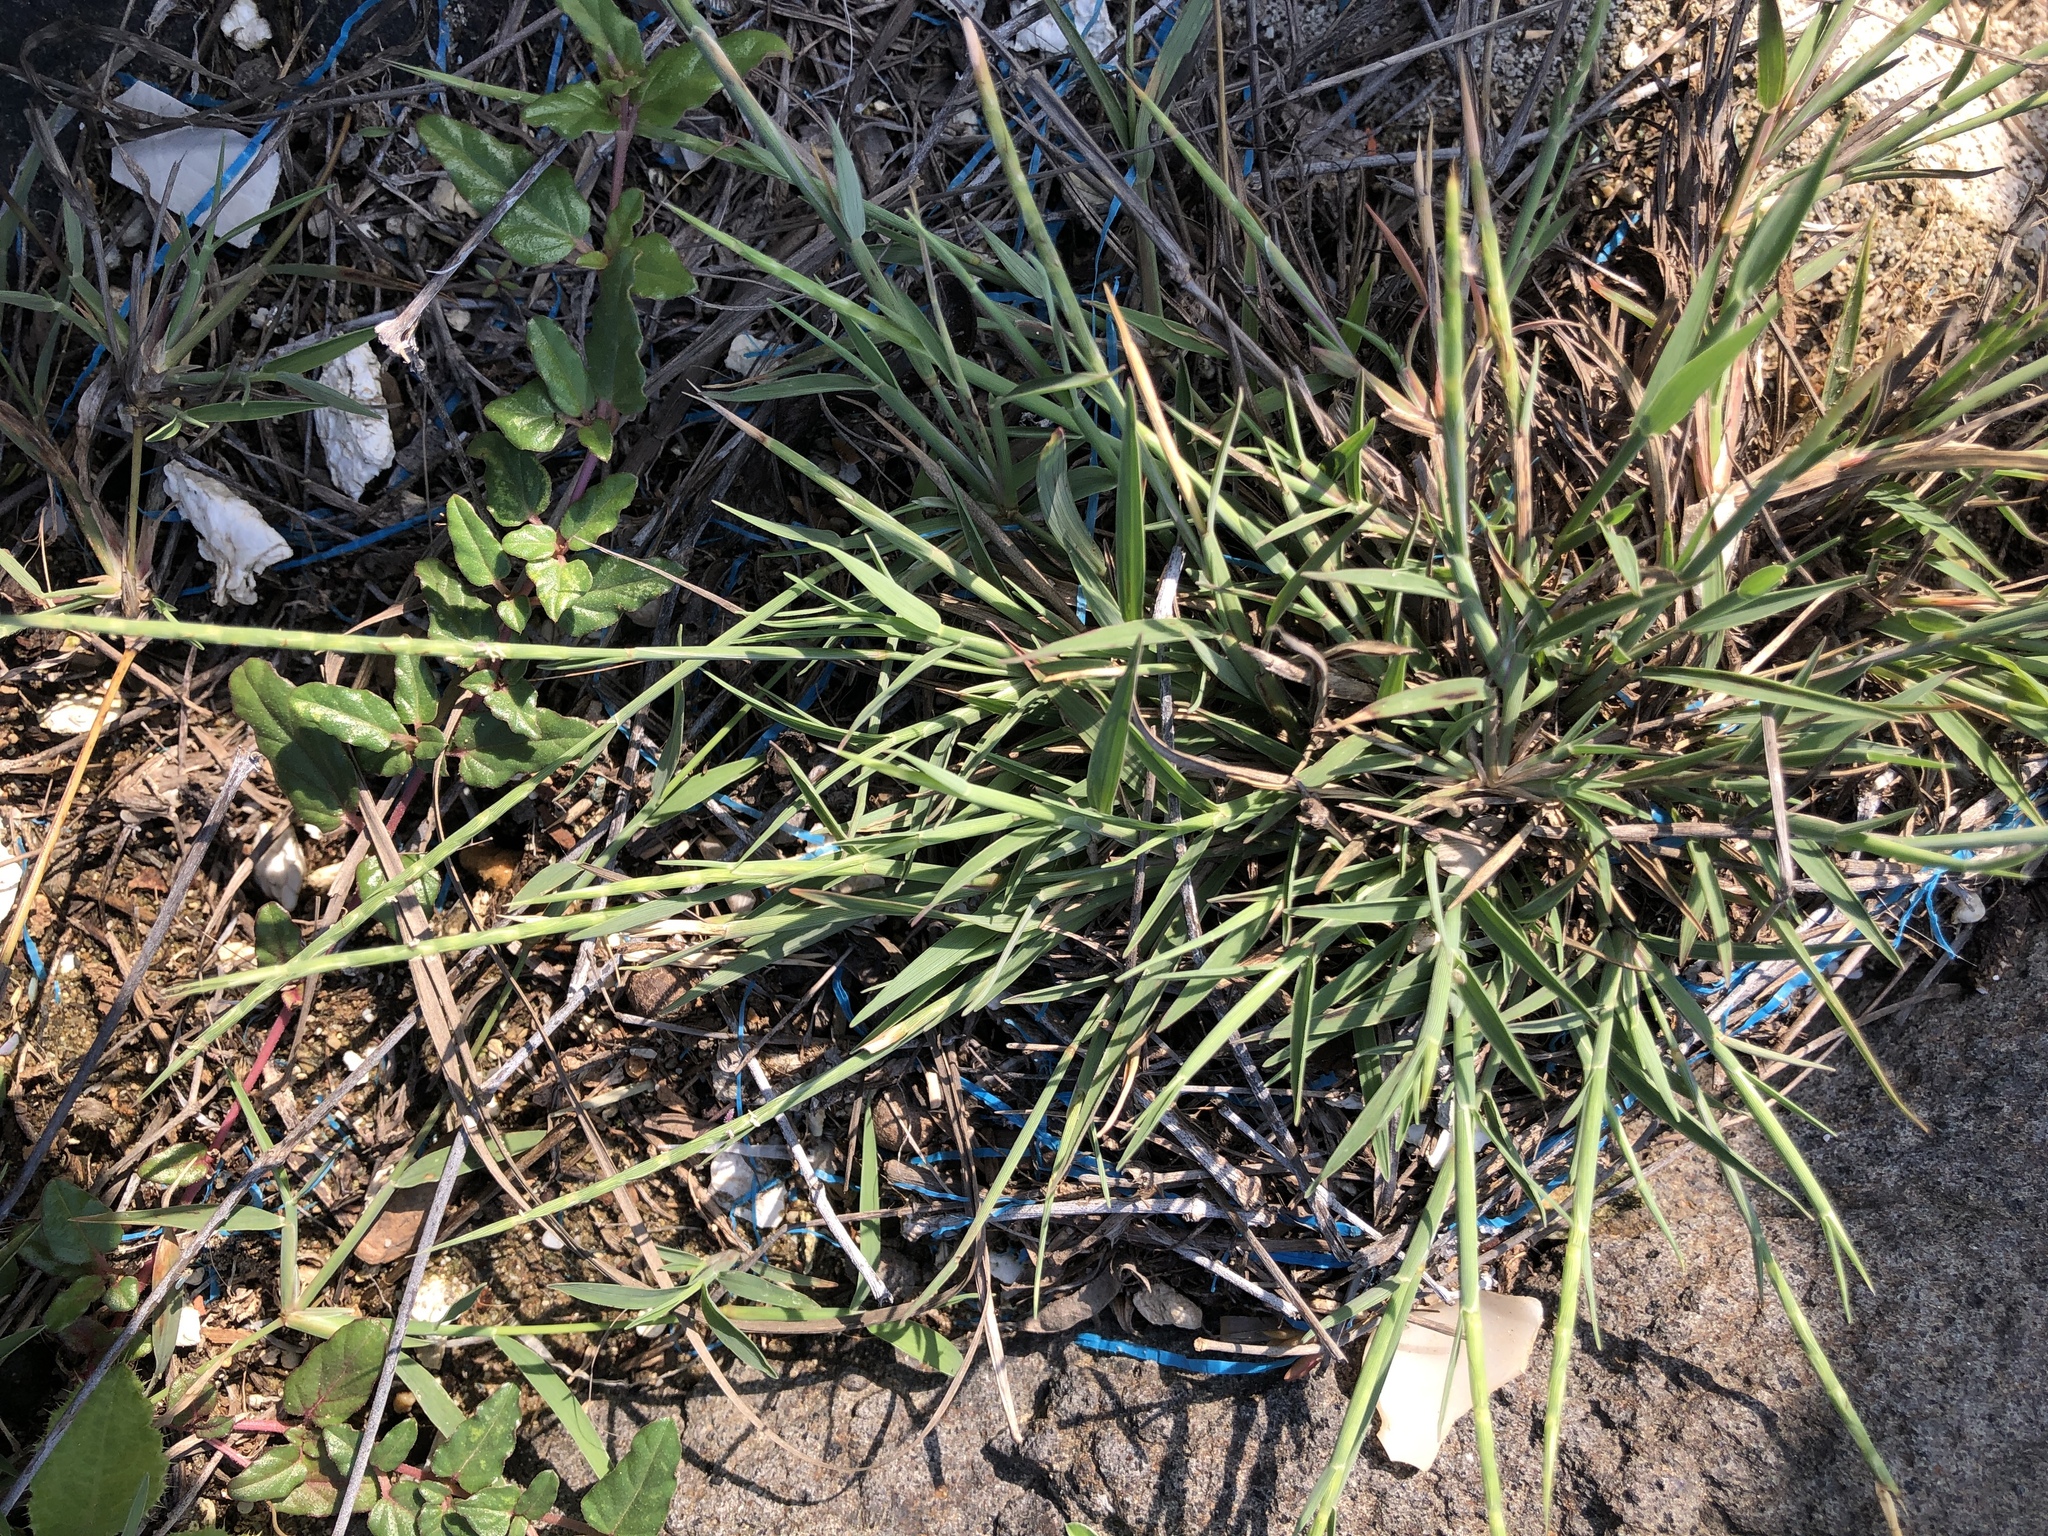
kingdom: Plantae
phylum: Tracheophyta
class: Liliopsida
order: Poales
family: Poaceae
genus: Lepturus
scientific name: Lepturus repens
